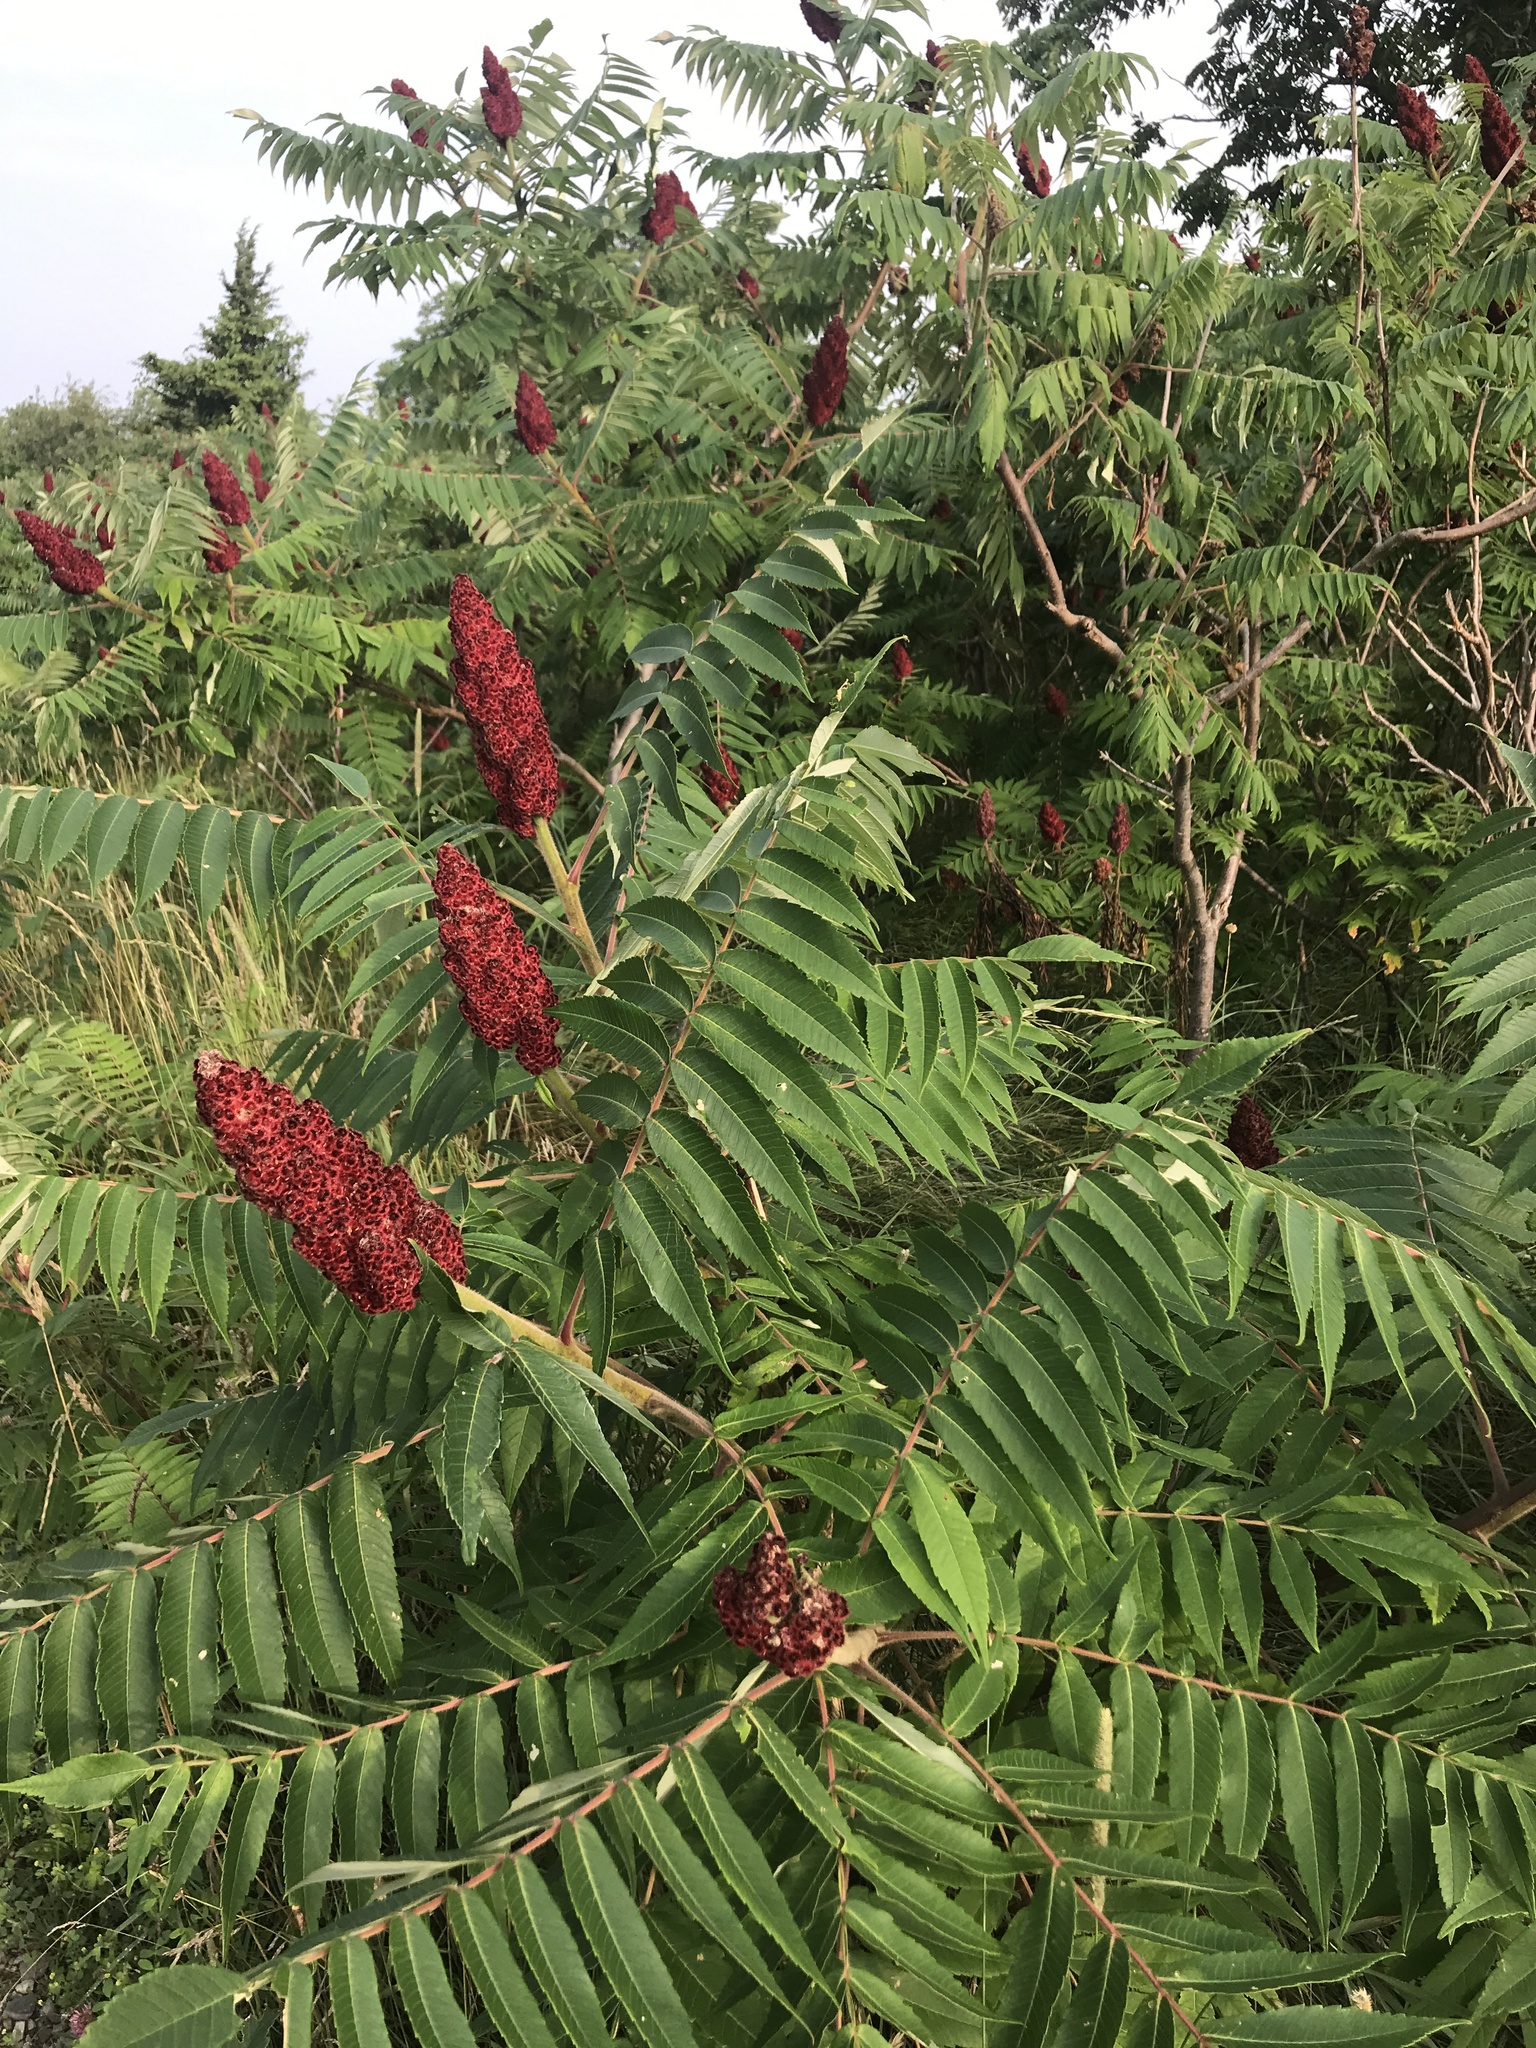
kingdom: Plantae
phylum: Tracheophyta
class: Magnoliopsida
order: Sapindales
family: Anacardiaceae
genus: Rhus
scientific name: Rhus typhina
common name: Staghorn sumac
